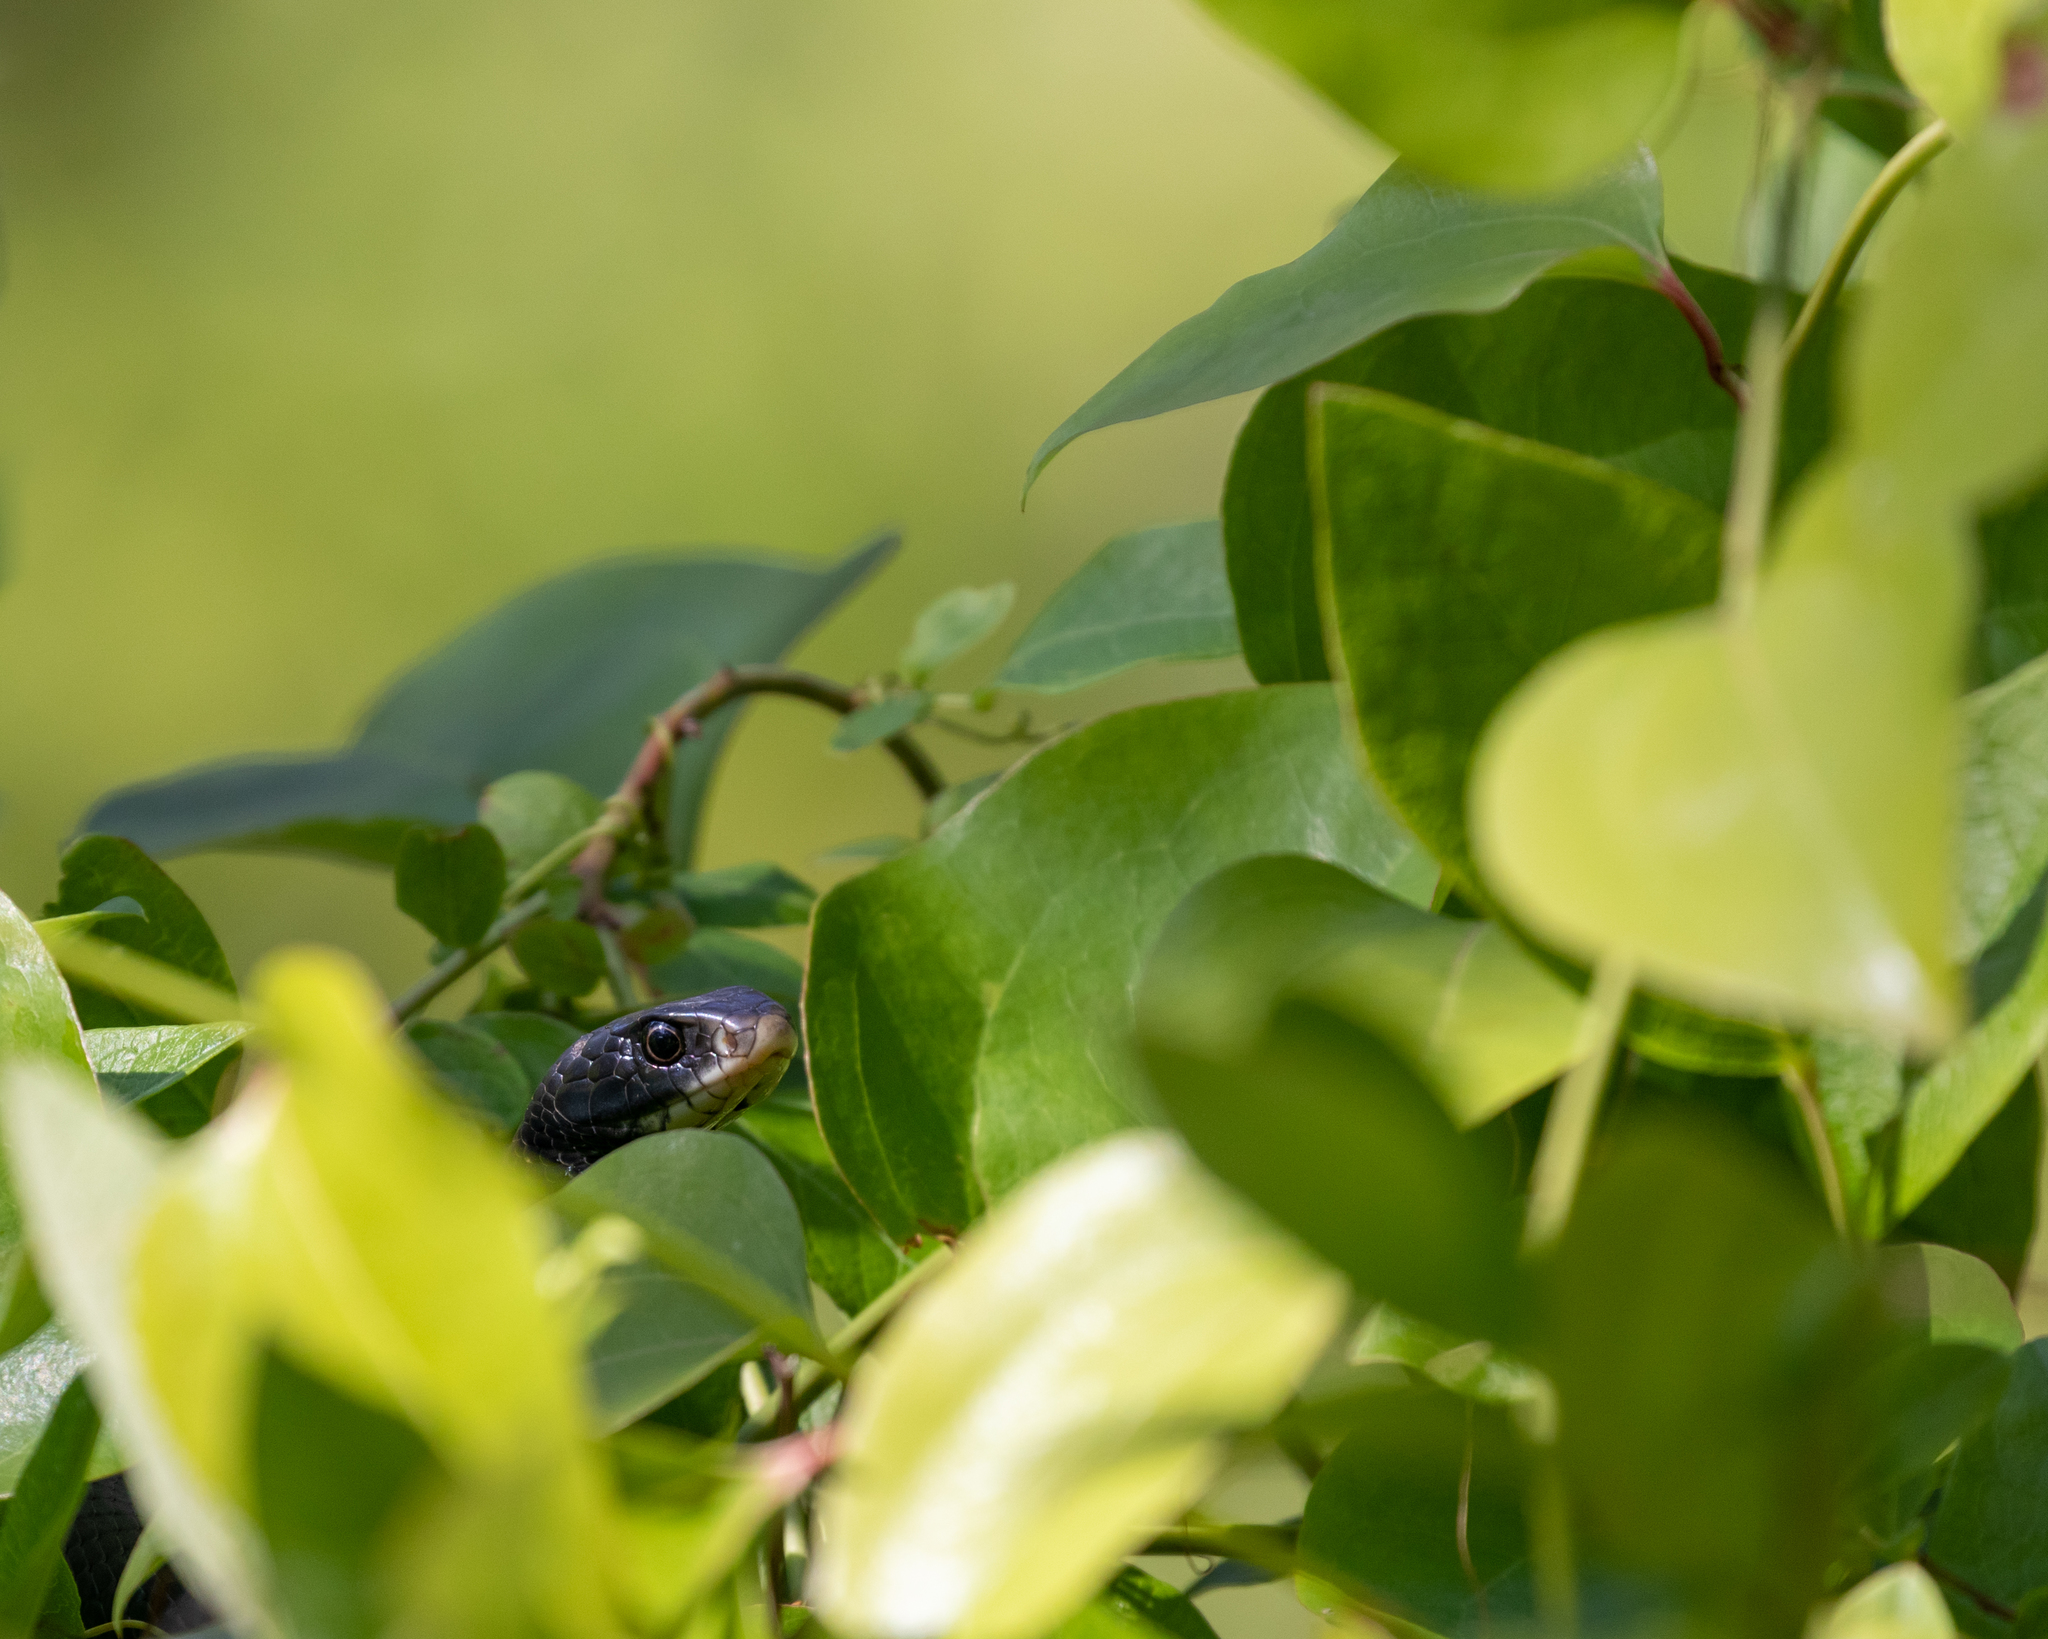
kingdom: Animalia
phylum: Chordata
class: Squamata
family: Colubridae
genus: Coluber
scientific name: Coluber constrictor
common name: Eastern racer
